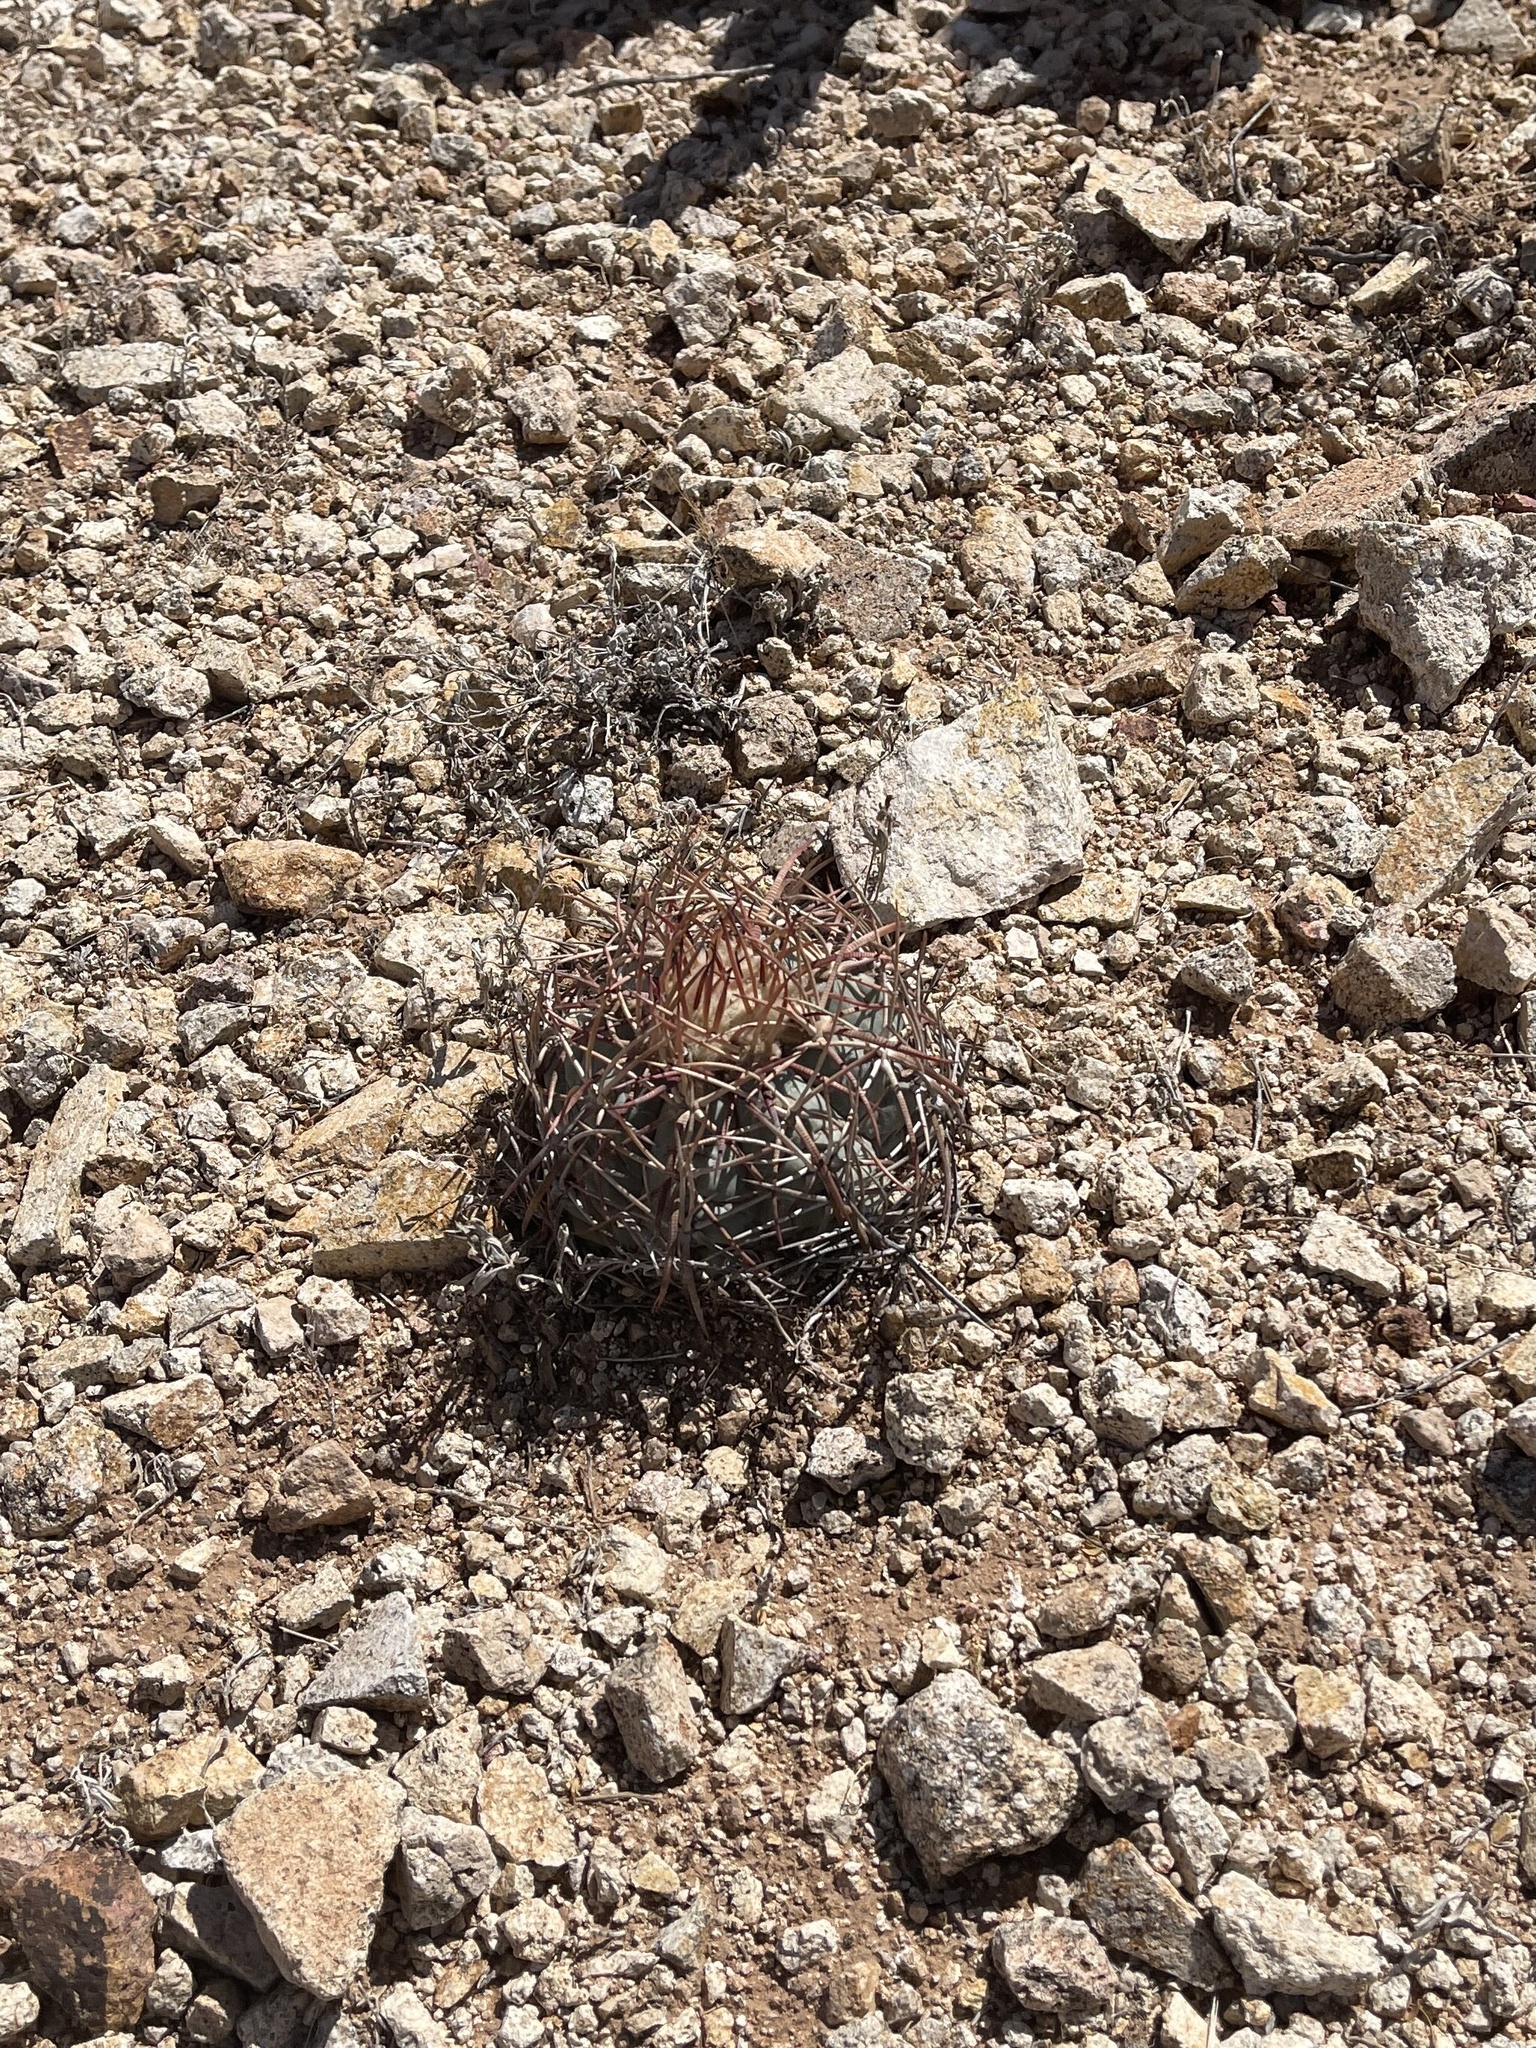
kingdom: Plantae
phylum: Tracheophyta
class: Magnoliopsida
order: Caryophyllales
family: Cactaceae
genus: Echinocactus
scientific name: Echinocactus horizonthalonius
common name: Devilshead
